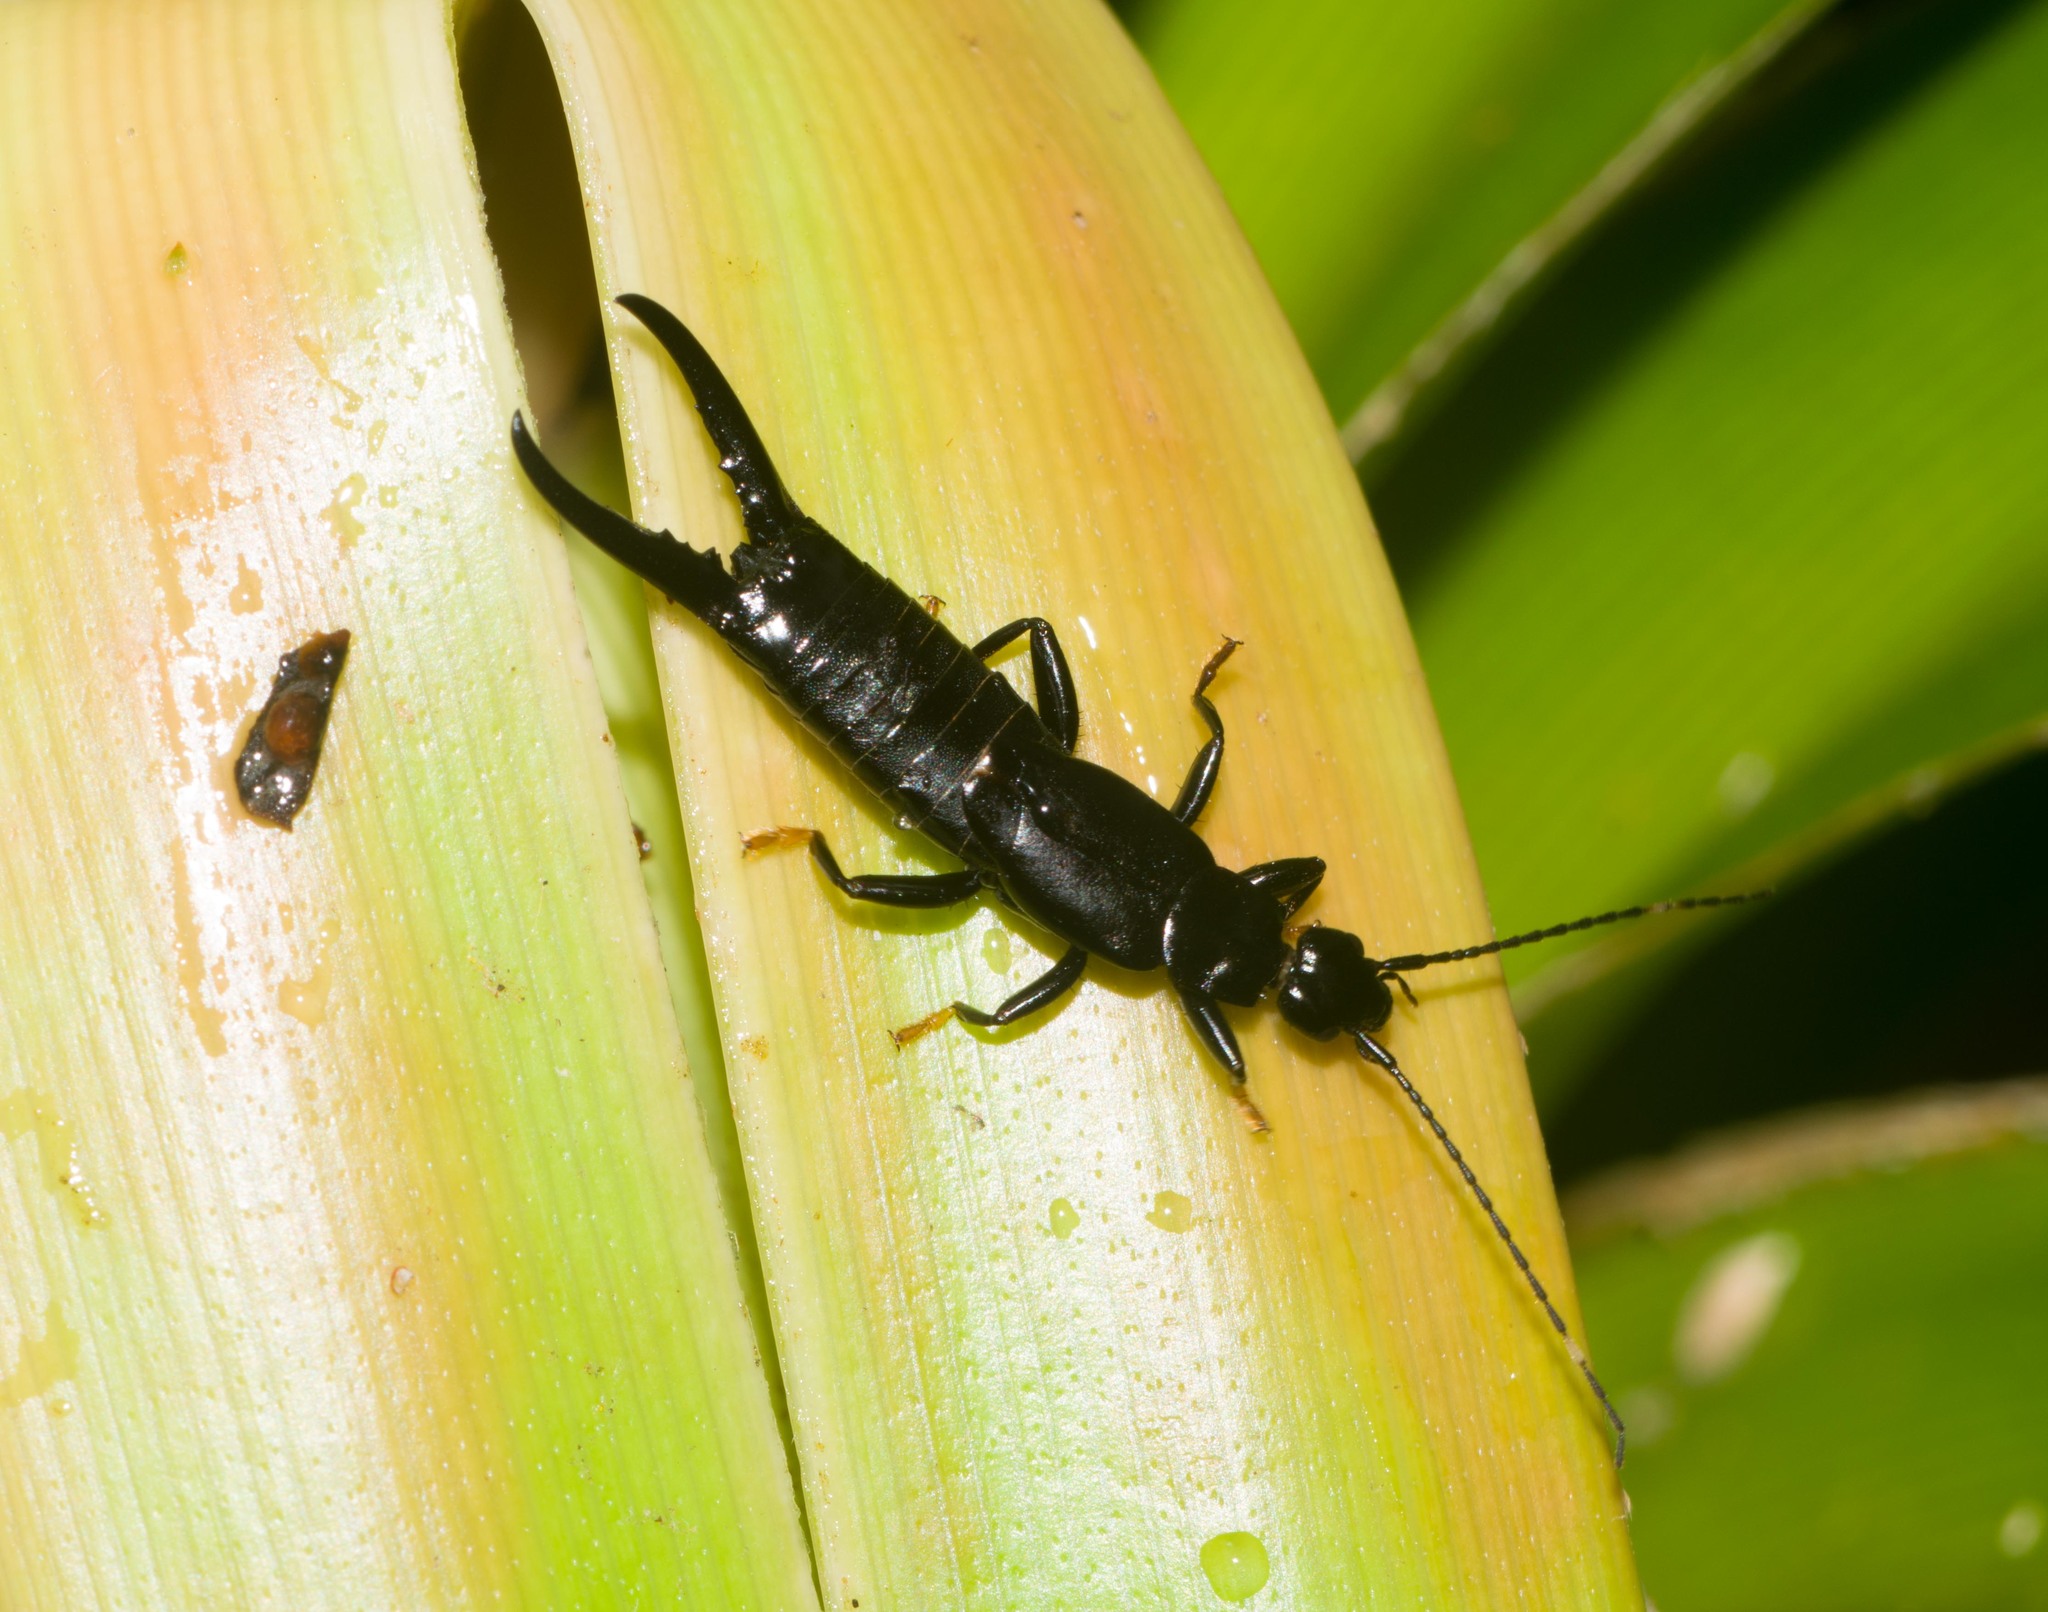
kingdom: Animalia
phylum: Arthropoda
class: Insecta
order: Dermaptera
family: Chelisochidae
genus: Chelisoches
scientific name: Chelisoches morio
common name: Black earwig
